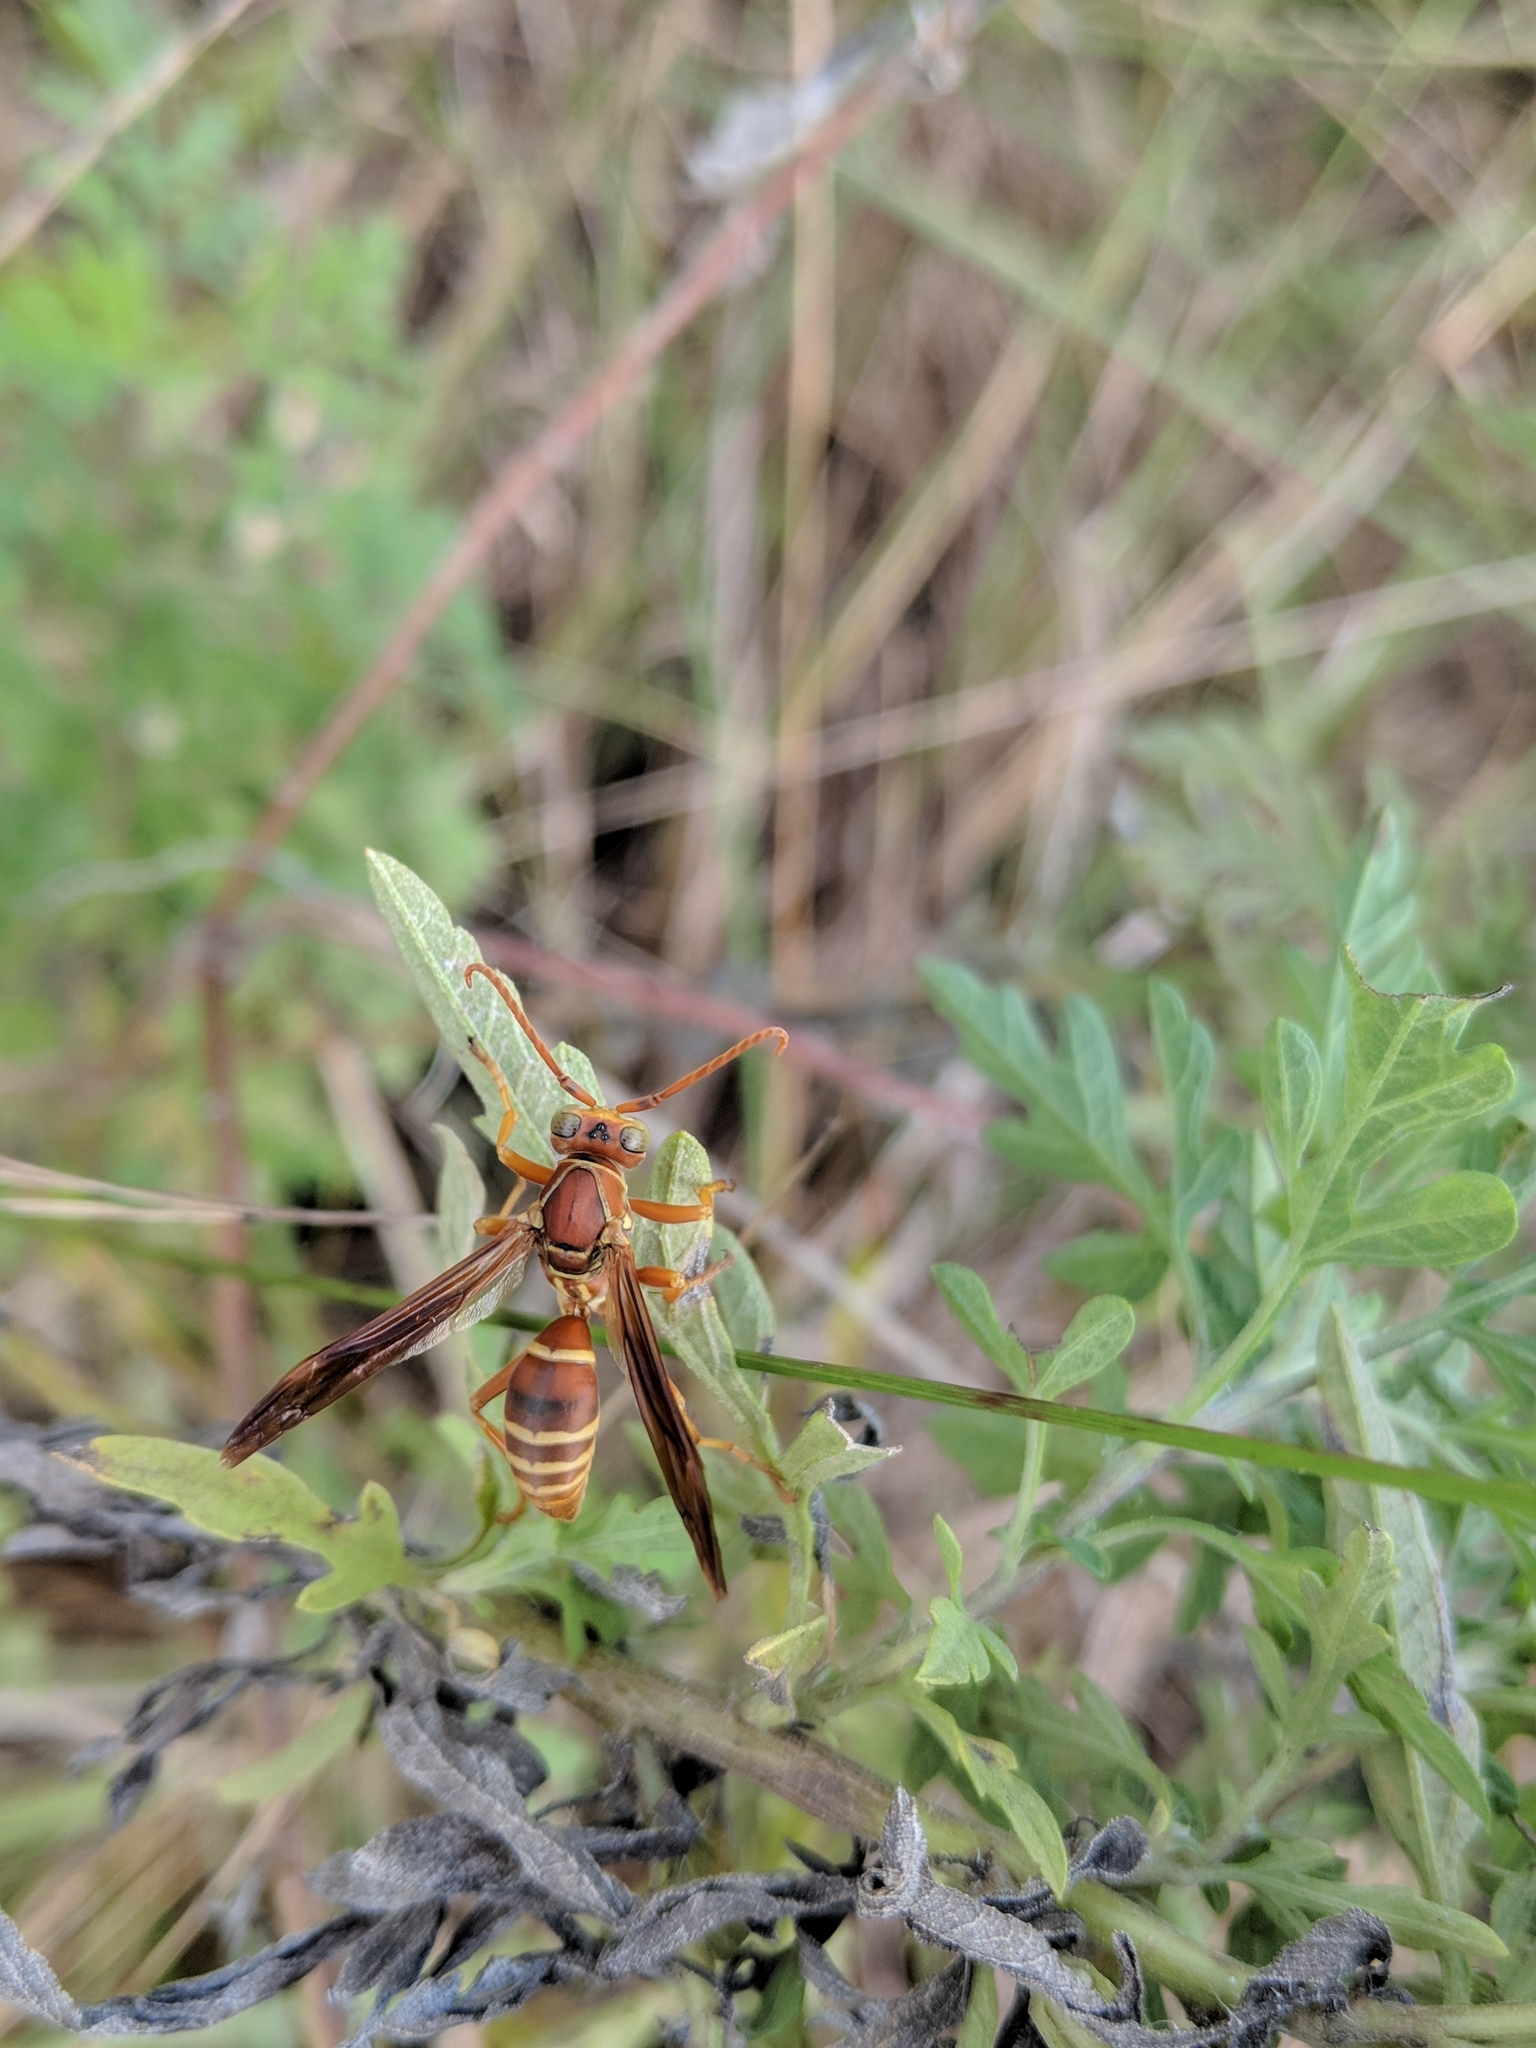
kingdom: Animalia
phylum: Arthropoda
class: Insecta
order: Hymenoptera
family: Eumenidae
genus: Polistes
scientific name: Polistes bellicosus
